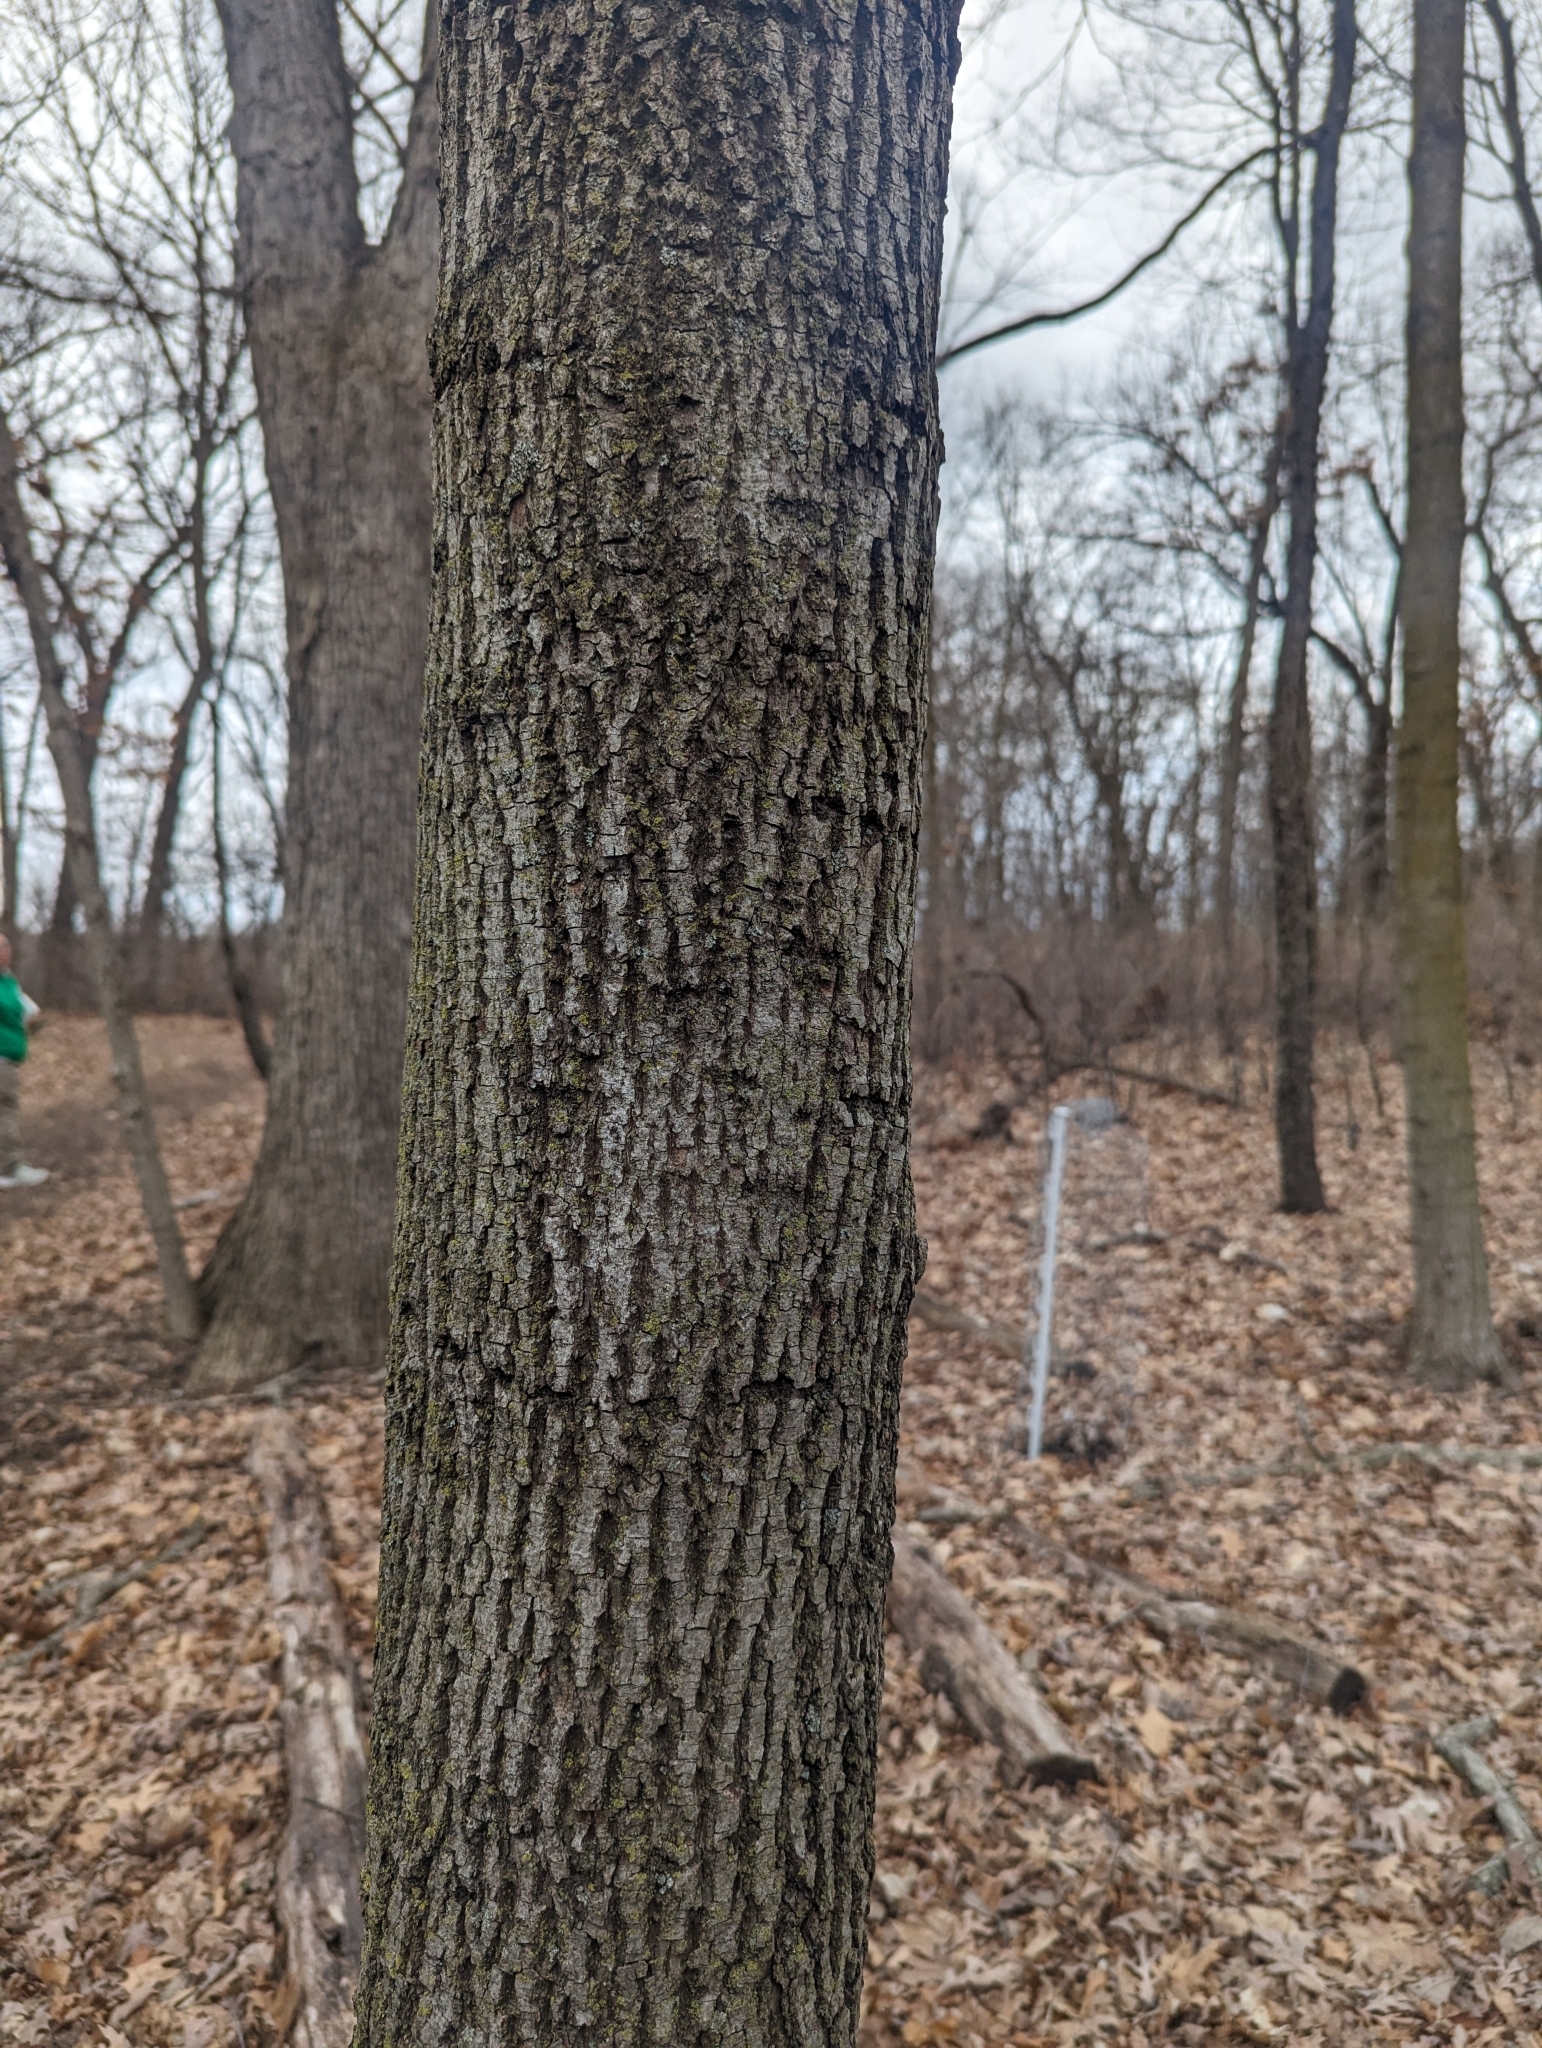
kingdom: Animalia
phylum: Chordata
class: Aves
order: Piciformes
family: Picidae
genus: Sphyrapicus
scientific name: Sphyrapicus varius
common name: Yellow-bellied sapsucker
